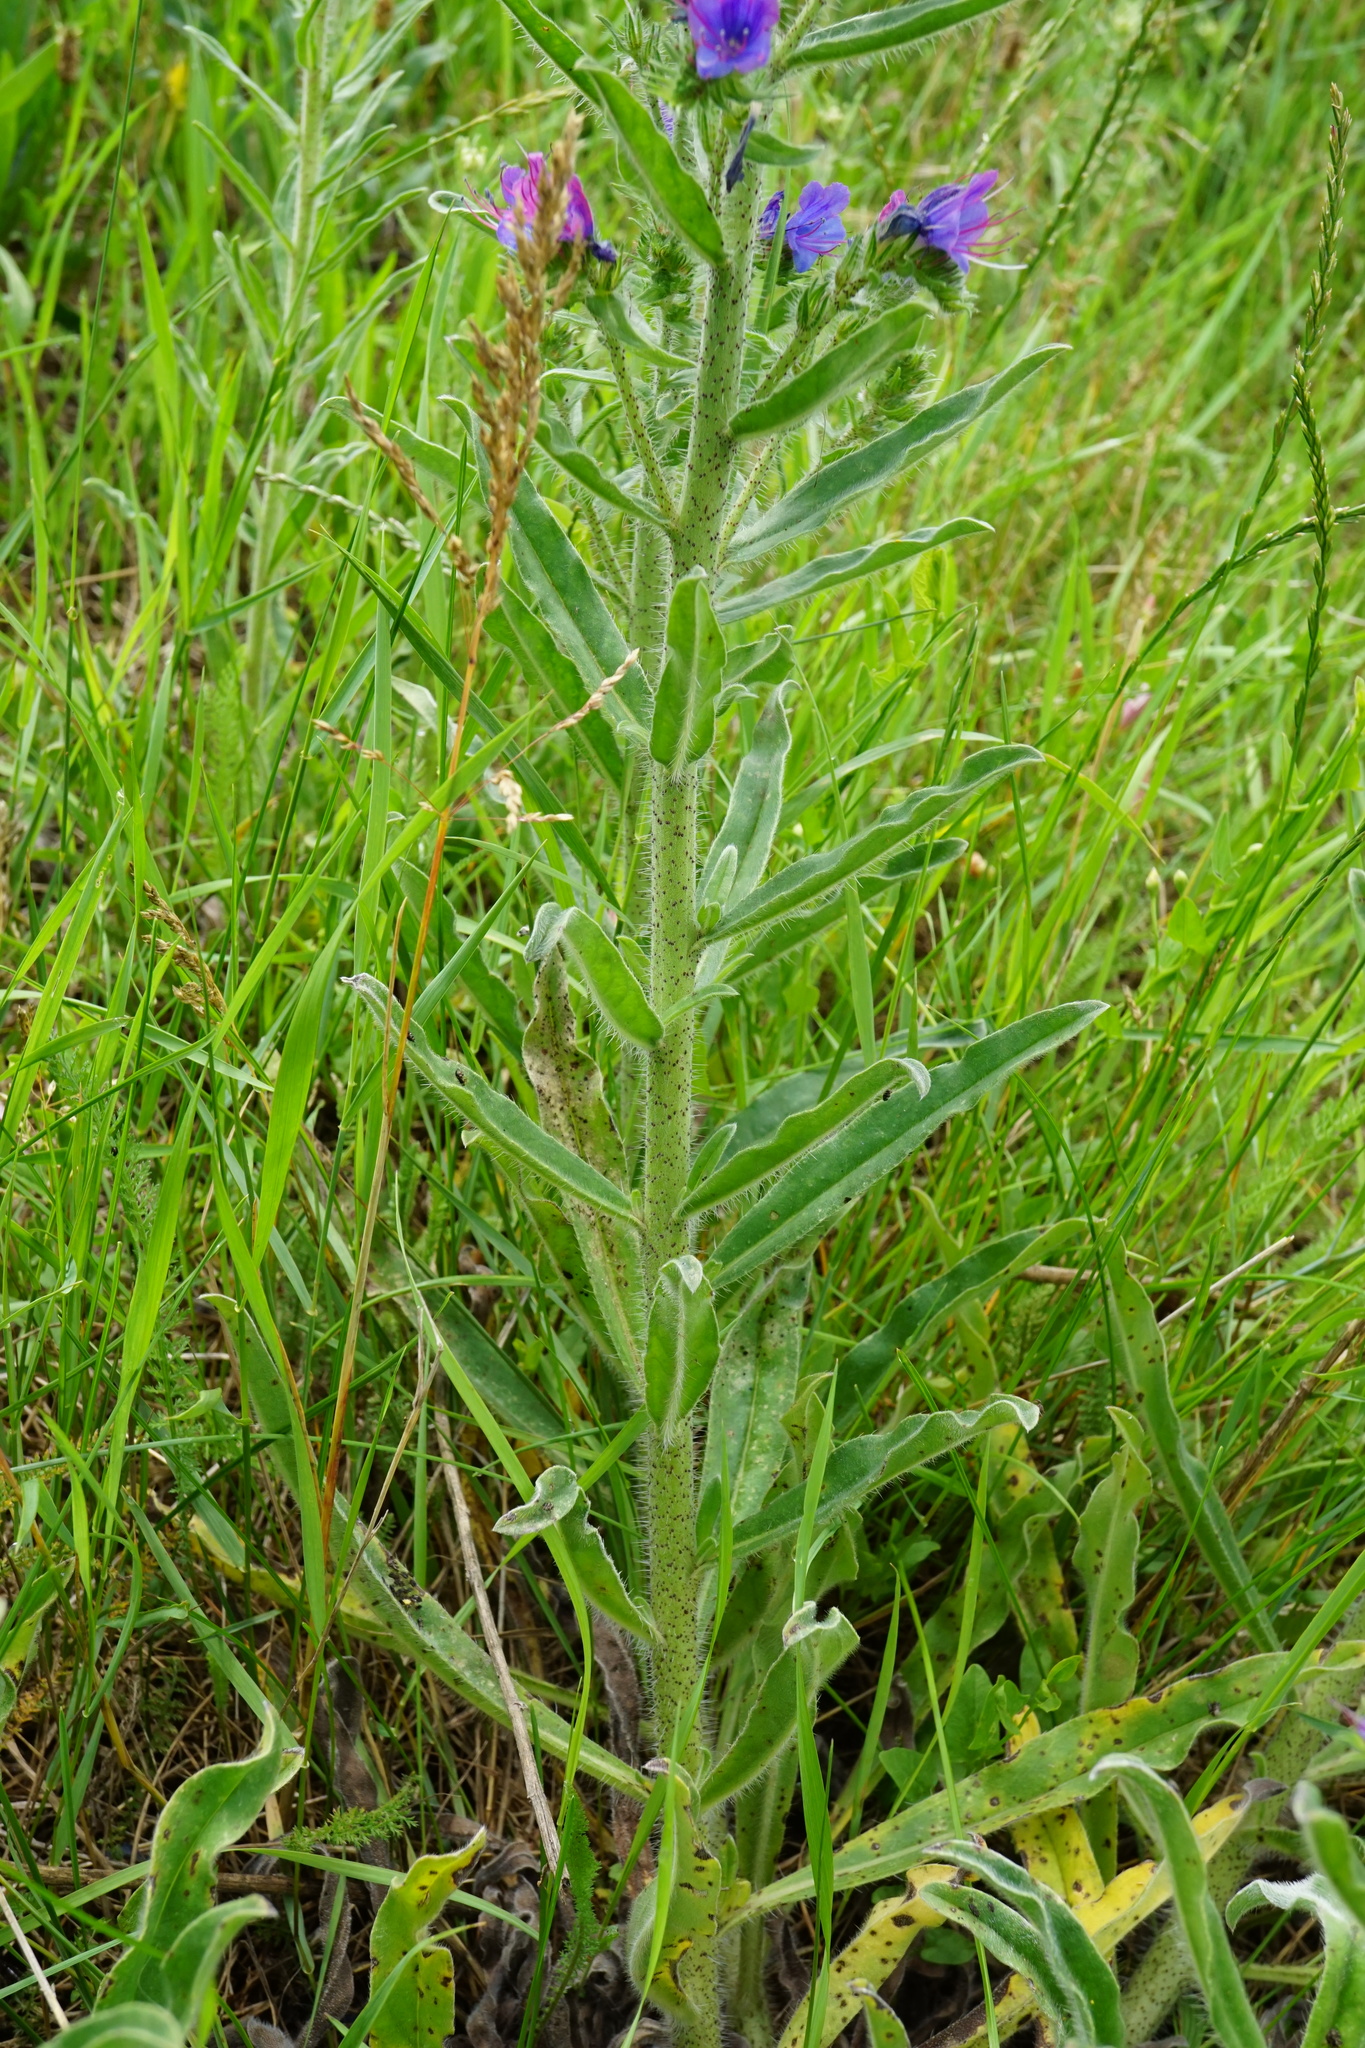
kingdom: Plantae
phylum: Tracheophyta
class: Magnoliopsida
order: Boraginales
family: Boraginaceae
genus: Echium
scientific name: Echium vulgare
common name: Common viper's bugloss
